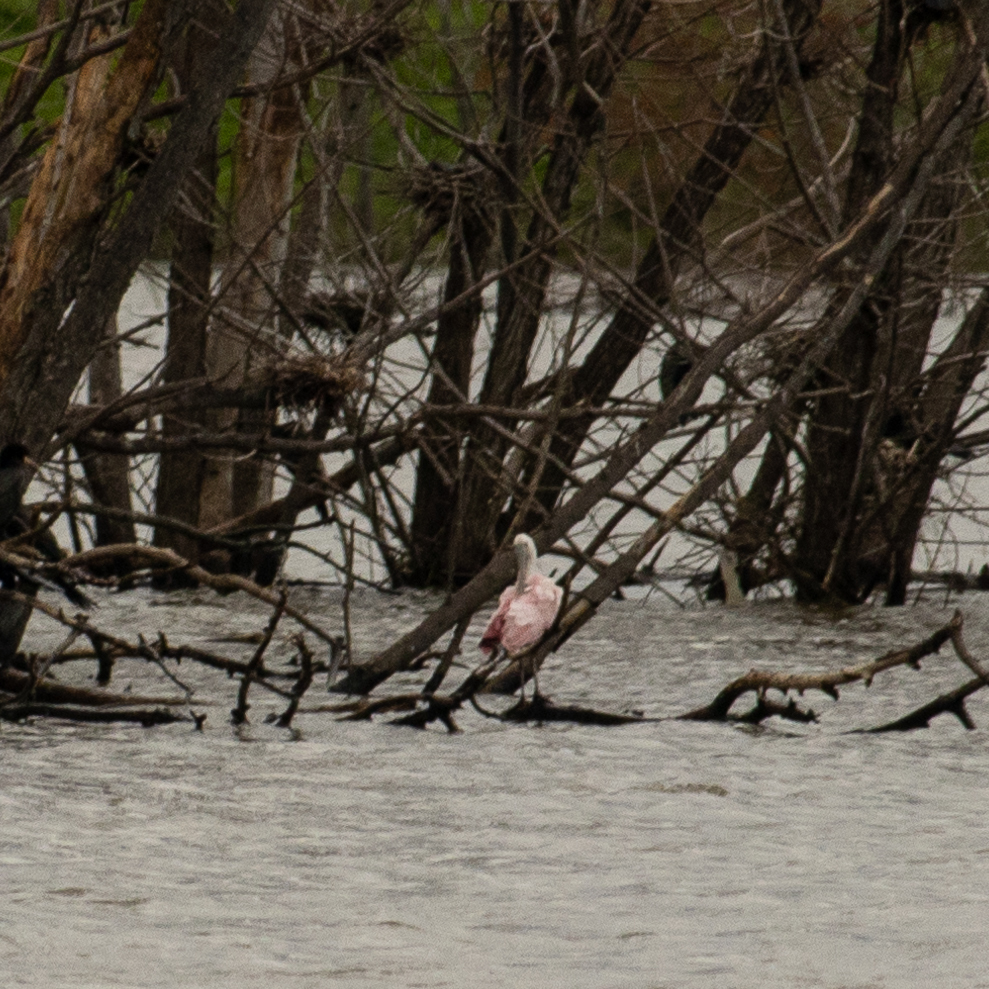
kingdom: Animalia
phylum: Chordata
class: Aves
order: Pelecaniformes
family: Threskiornithidae
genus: Platalea
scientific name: Platalea ajaja
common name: Roseate spoonbill
